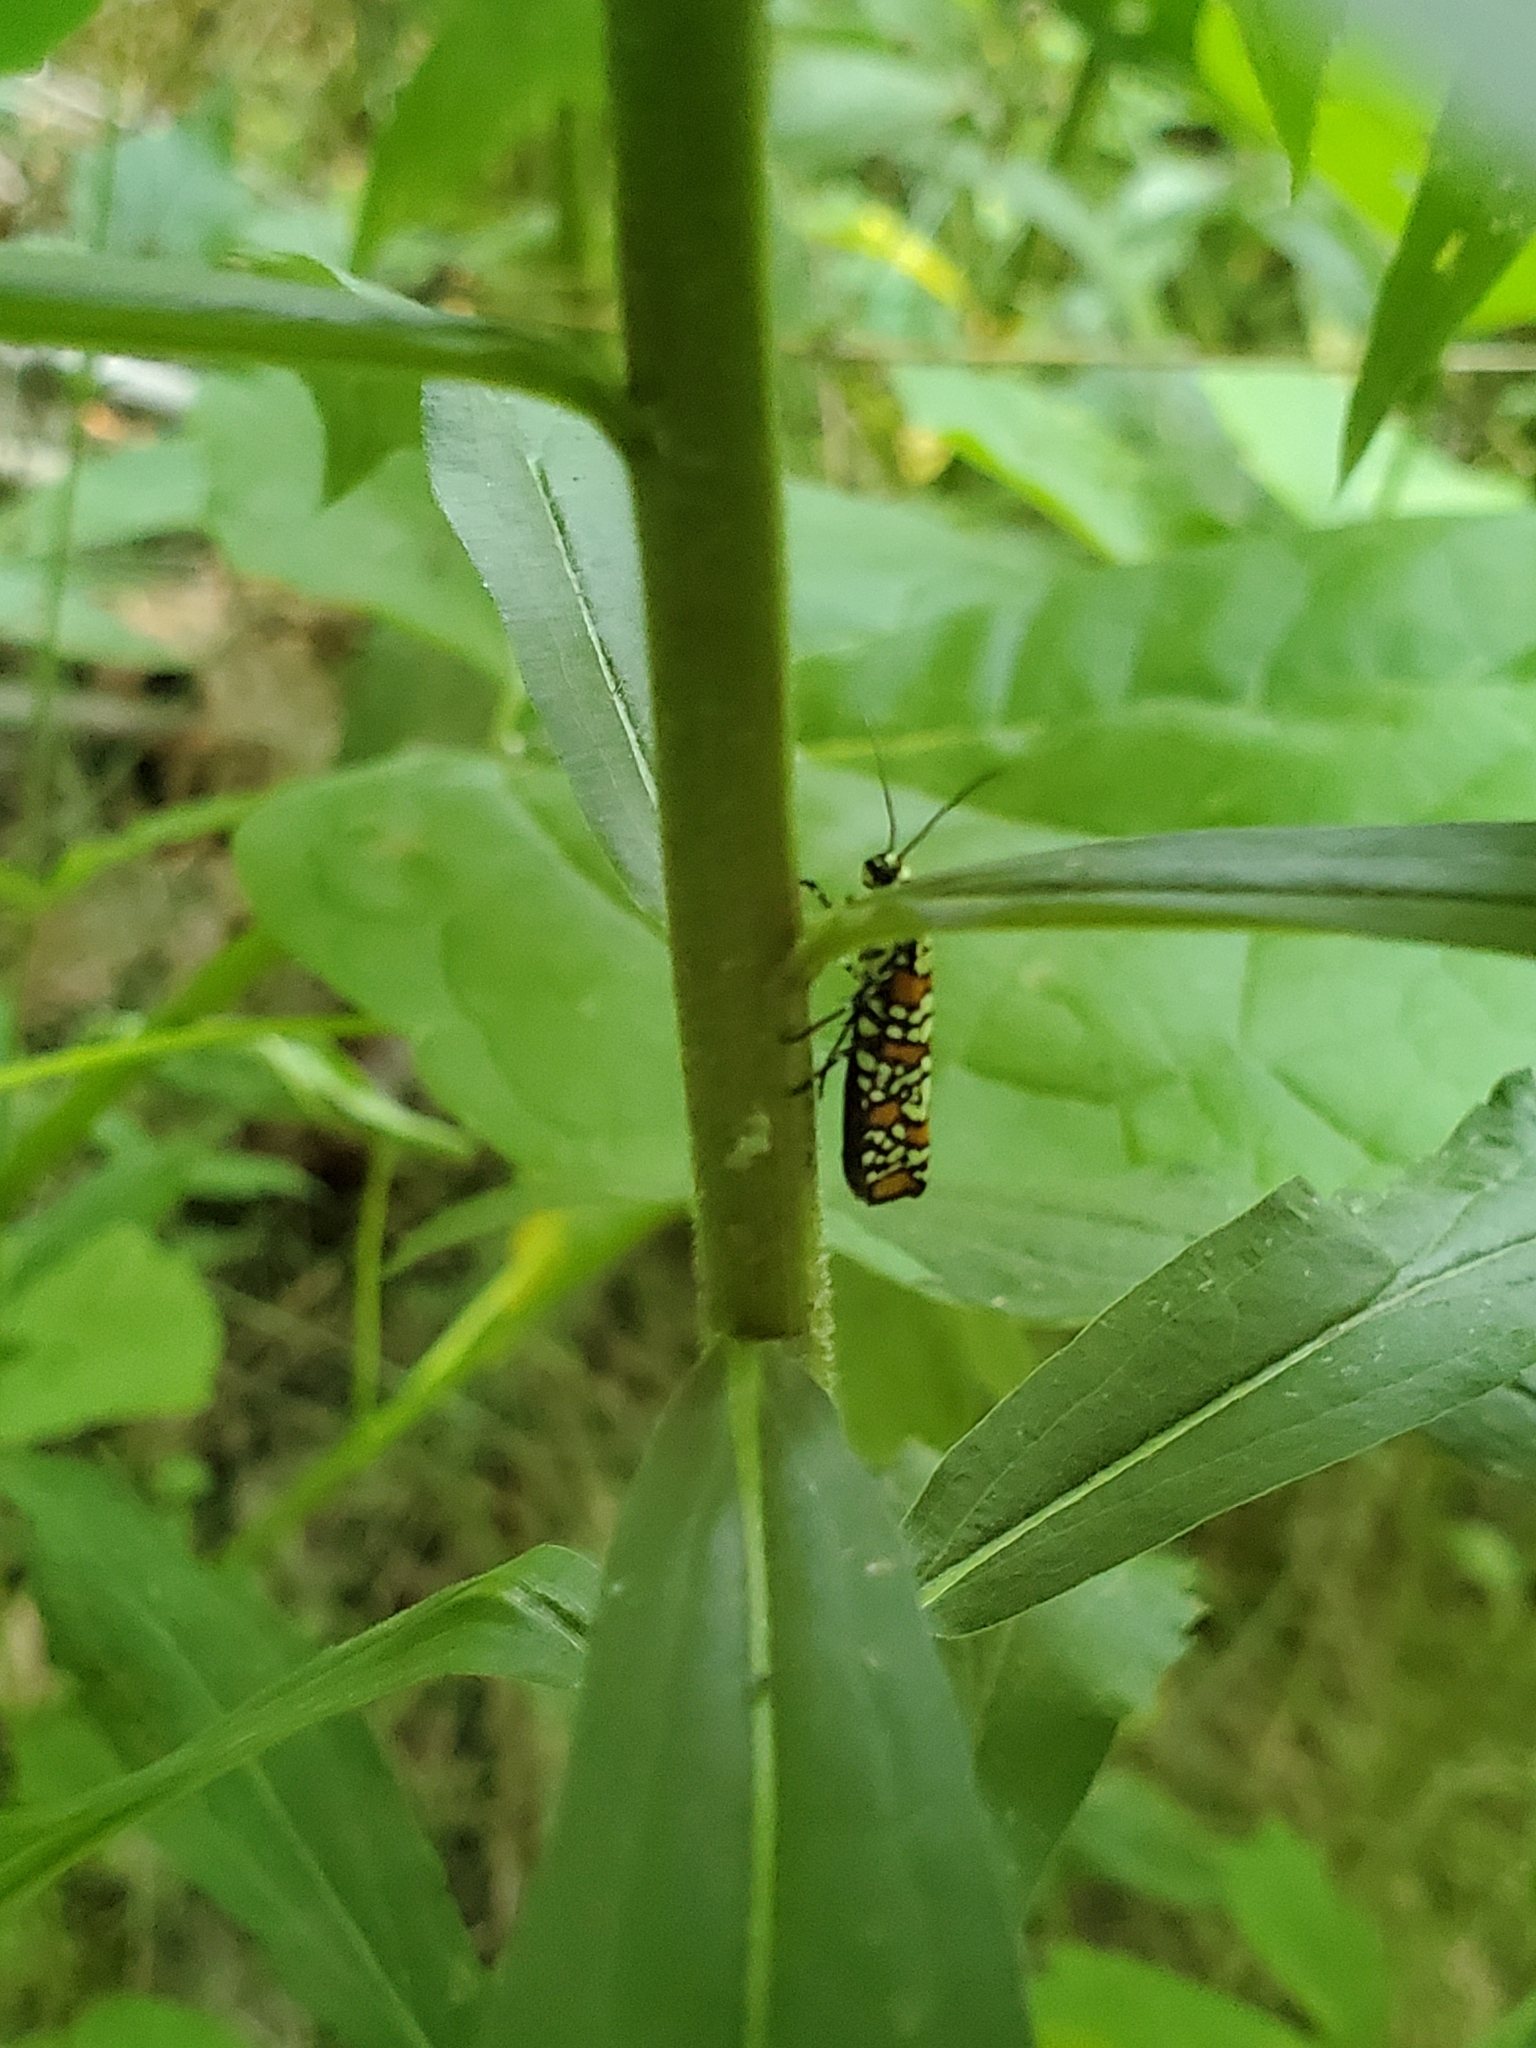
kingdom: Animalia
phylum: Arthropoda
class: Insecta
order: Lepidoptera
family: Attevidae
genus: Atteva
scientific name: Atteva punctella
